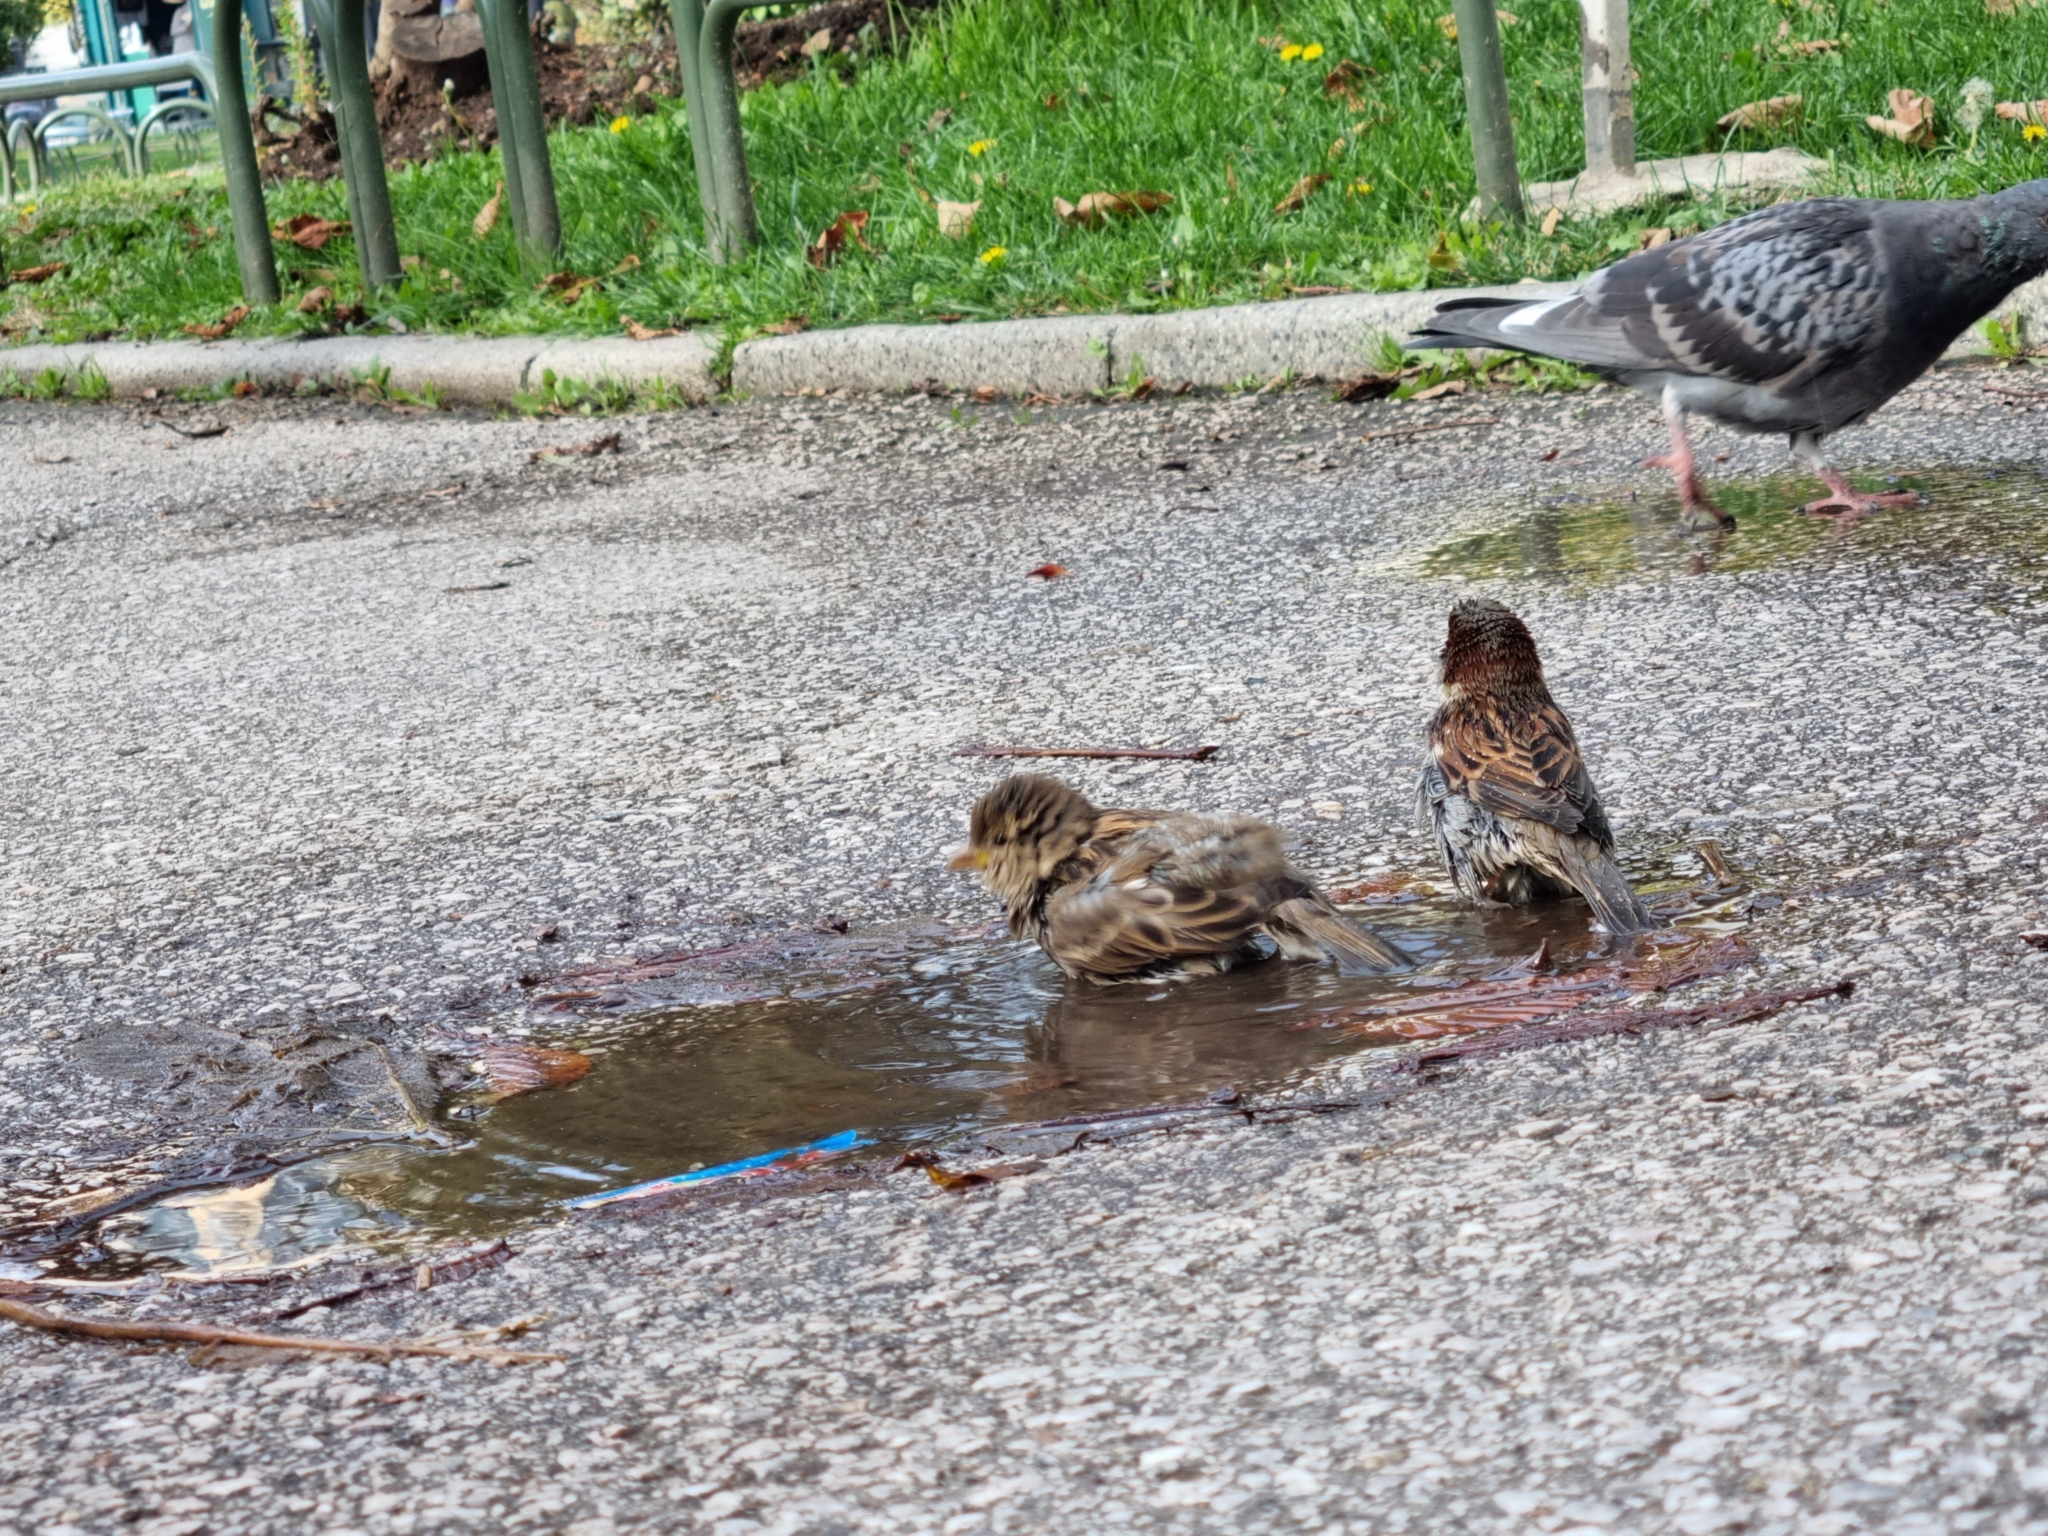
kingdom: Animalia
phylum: Chordata
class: Aves
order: Passeriformes
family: Passeridae
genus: Passer
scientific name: Passer domesticus
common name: House sparrow
